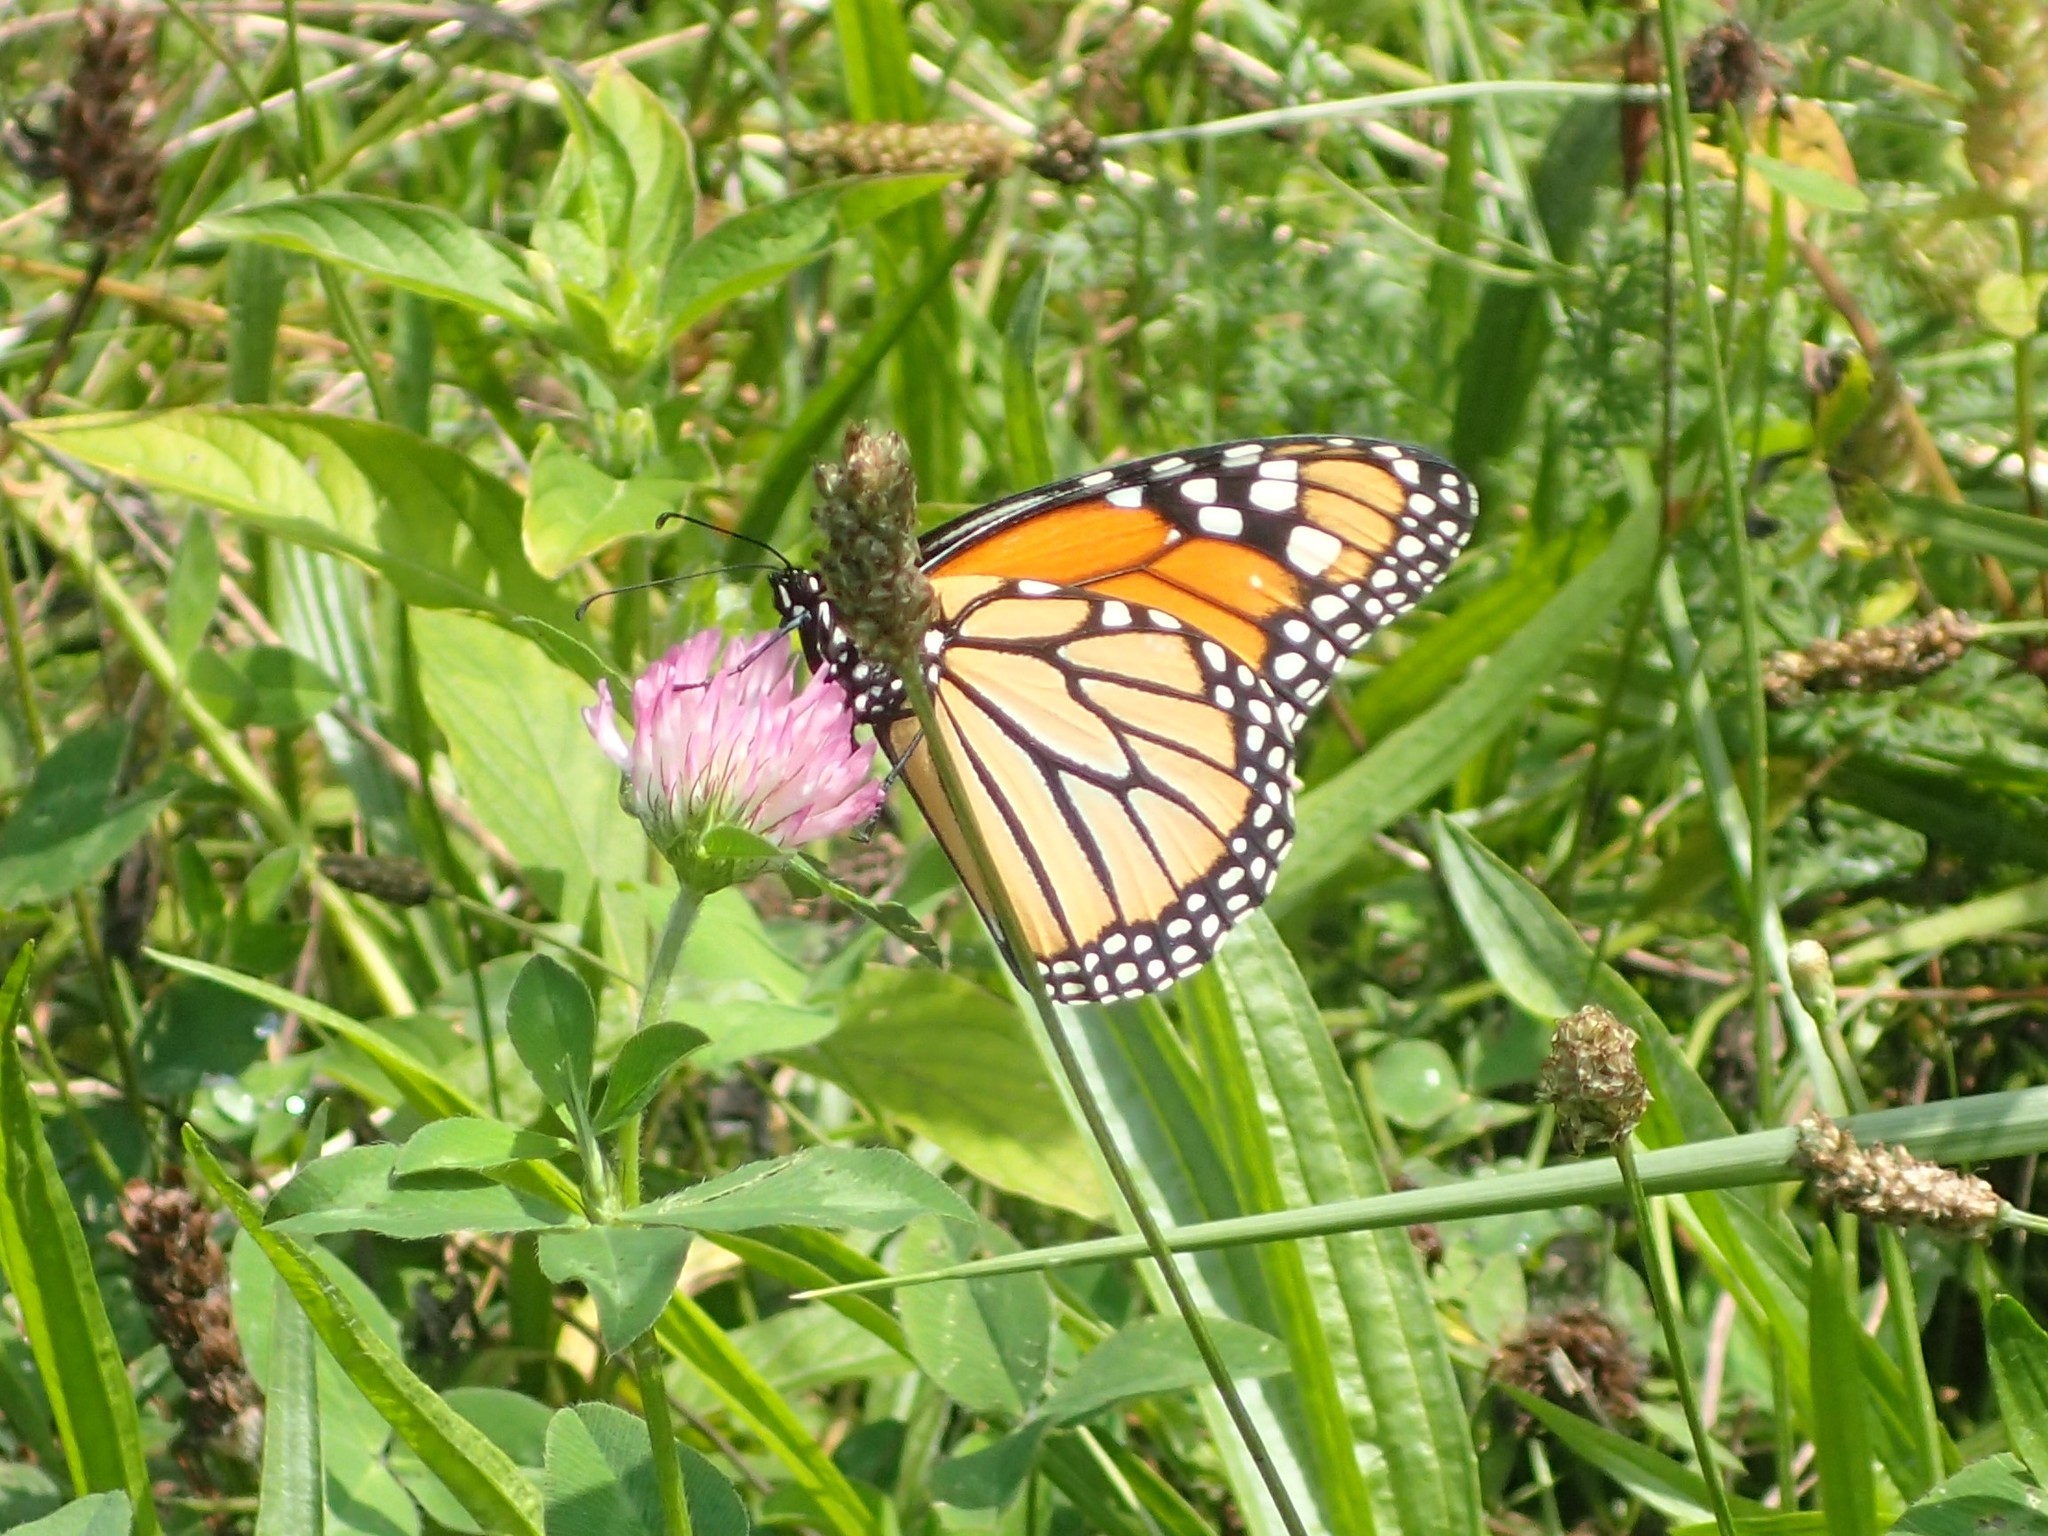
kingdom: Animalia
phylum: Arthropoda
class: Insecta
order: Lepidoptera
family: Nymphalidae
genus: Danaus
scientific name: Danaus plexippus
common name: Monarch
